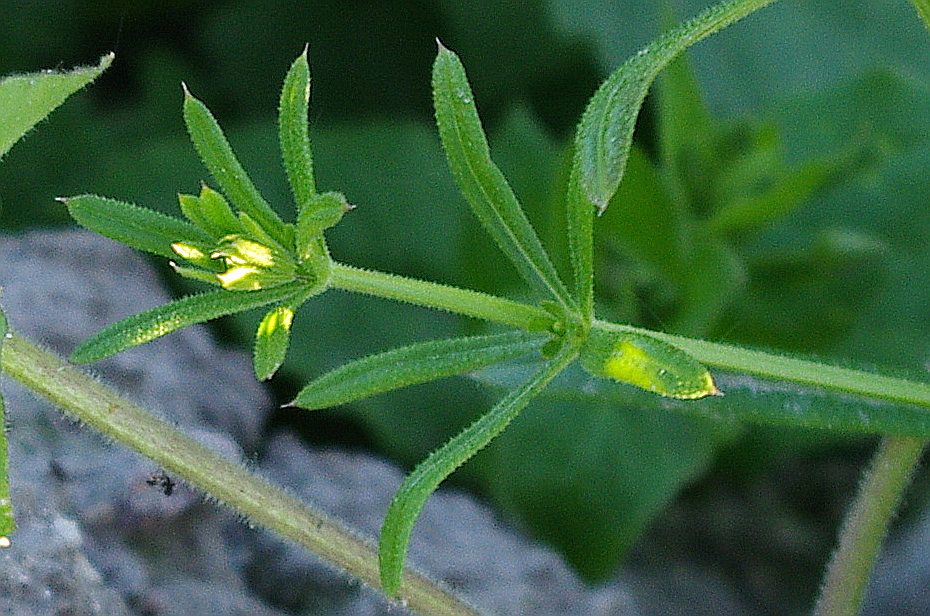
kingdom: Plantae
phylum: Tracheophyta
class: Magnoliopsida
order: Gentianales
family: Rubiaceae
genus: Galium
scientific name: Galium aparine
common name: Cleavers
